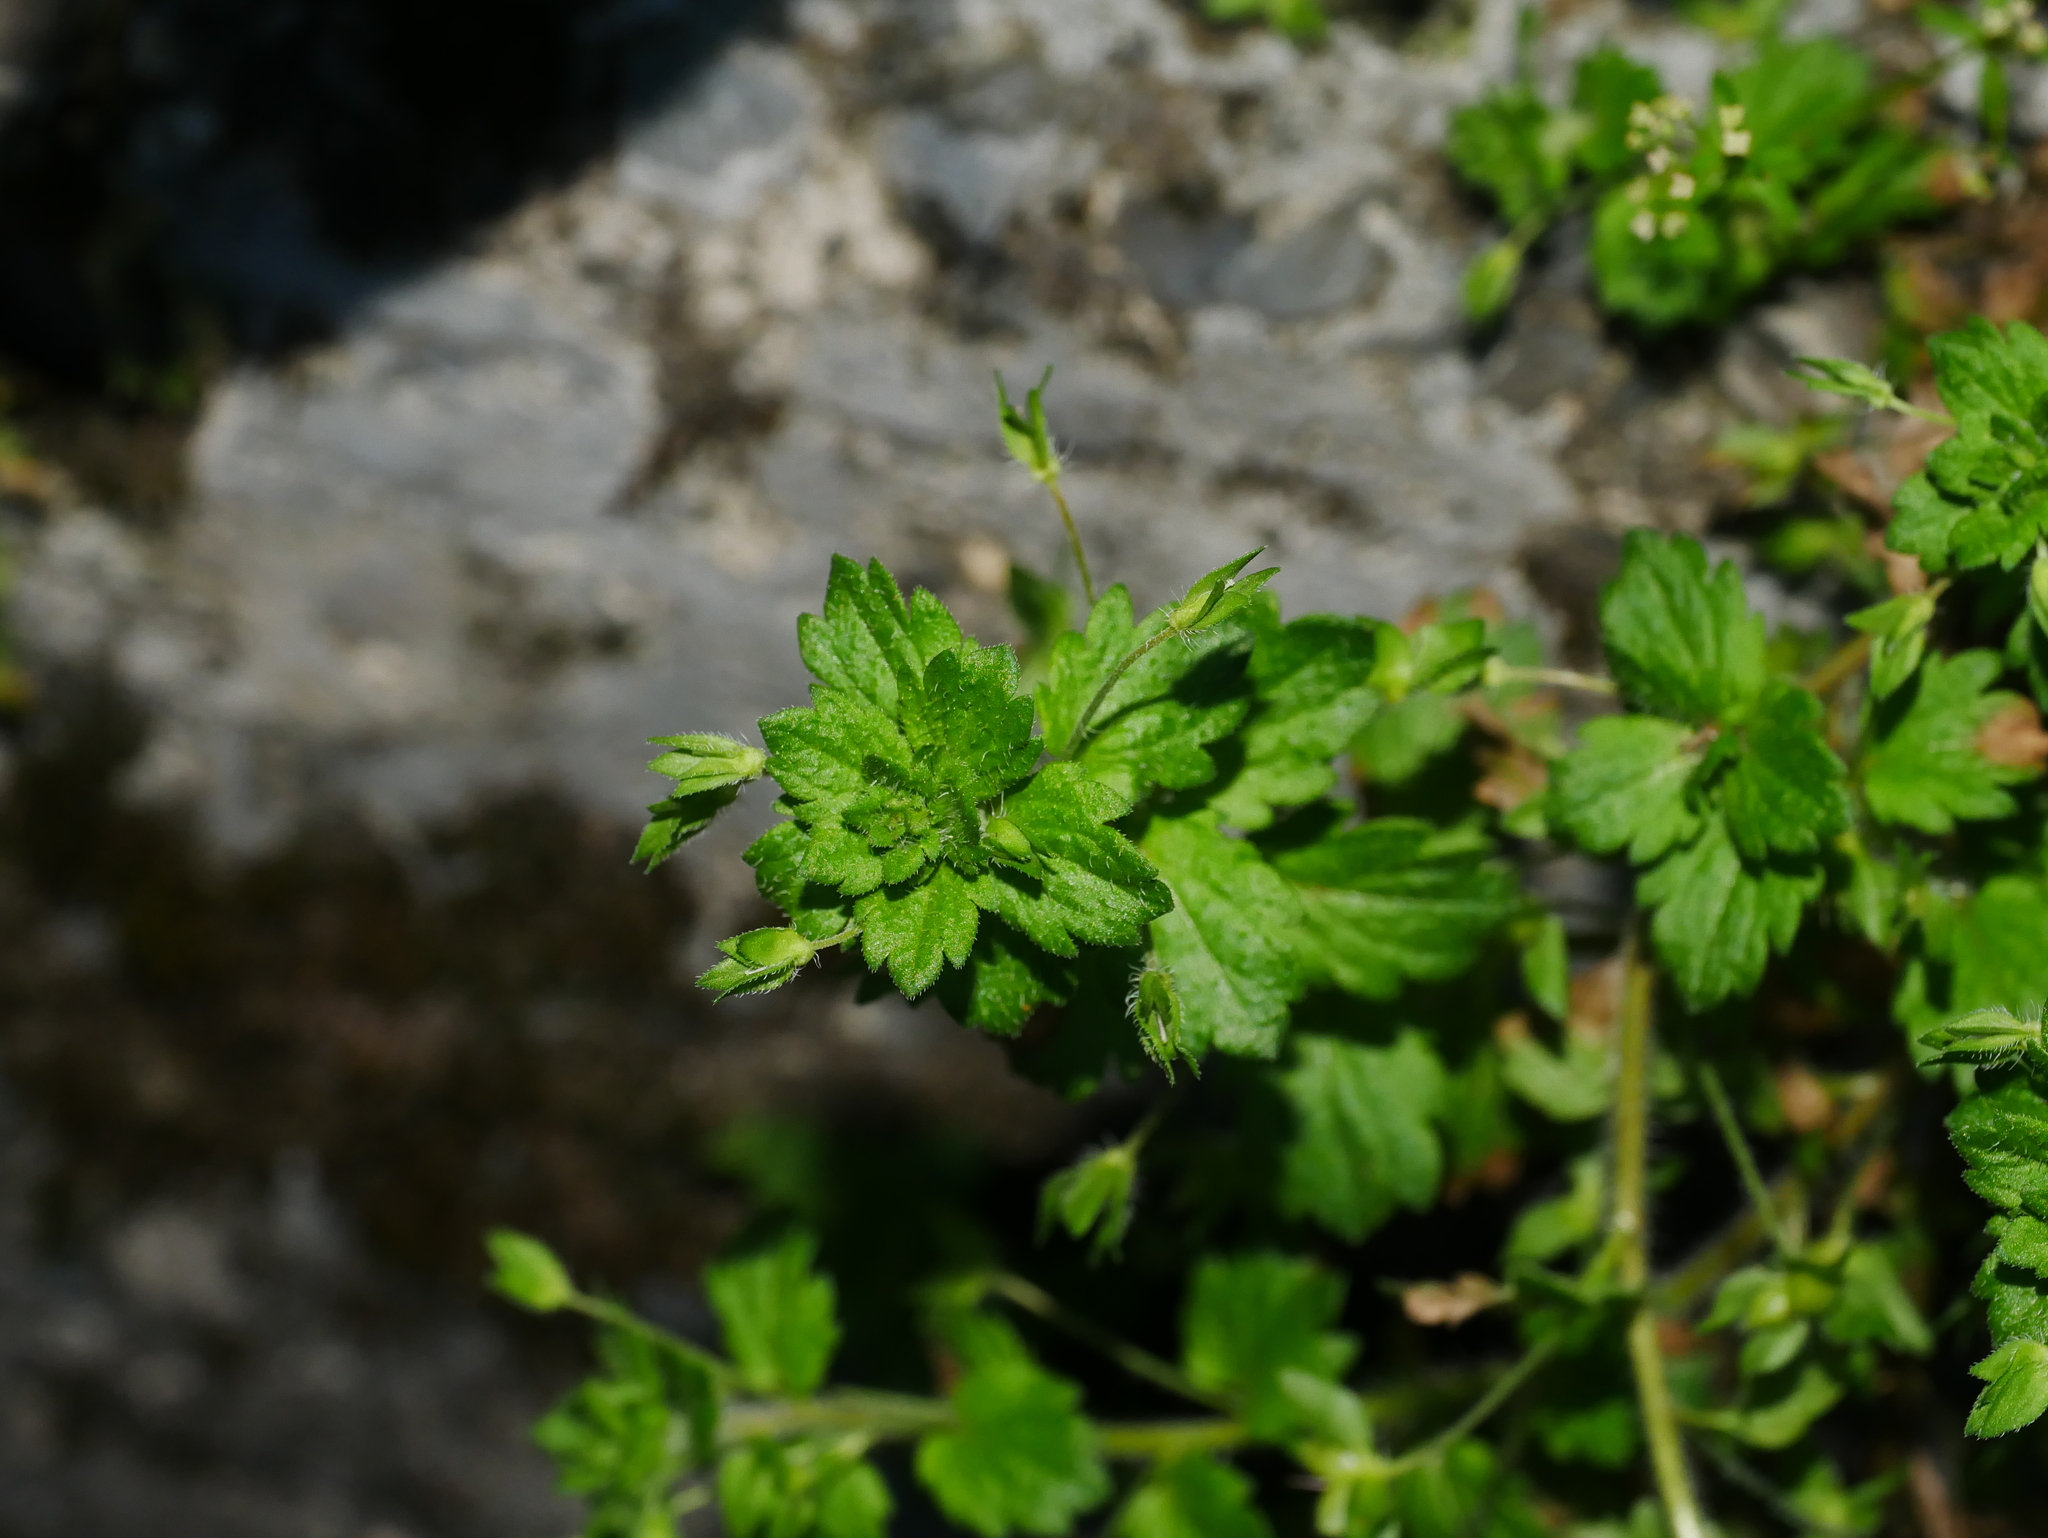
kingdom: Plantae
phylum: Tracheophyta
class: Magnoliopsida
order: Lamiales
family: Plantaginaceae
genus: Veronica
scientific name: Veronica persica
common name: Common field-speedwell
